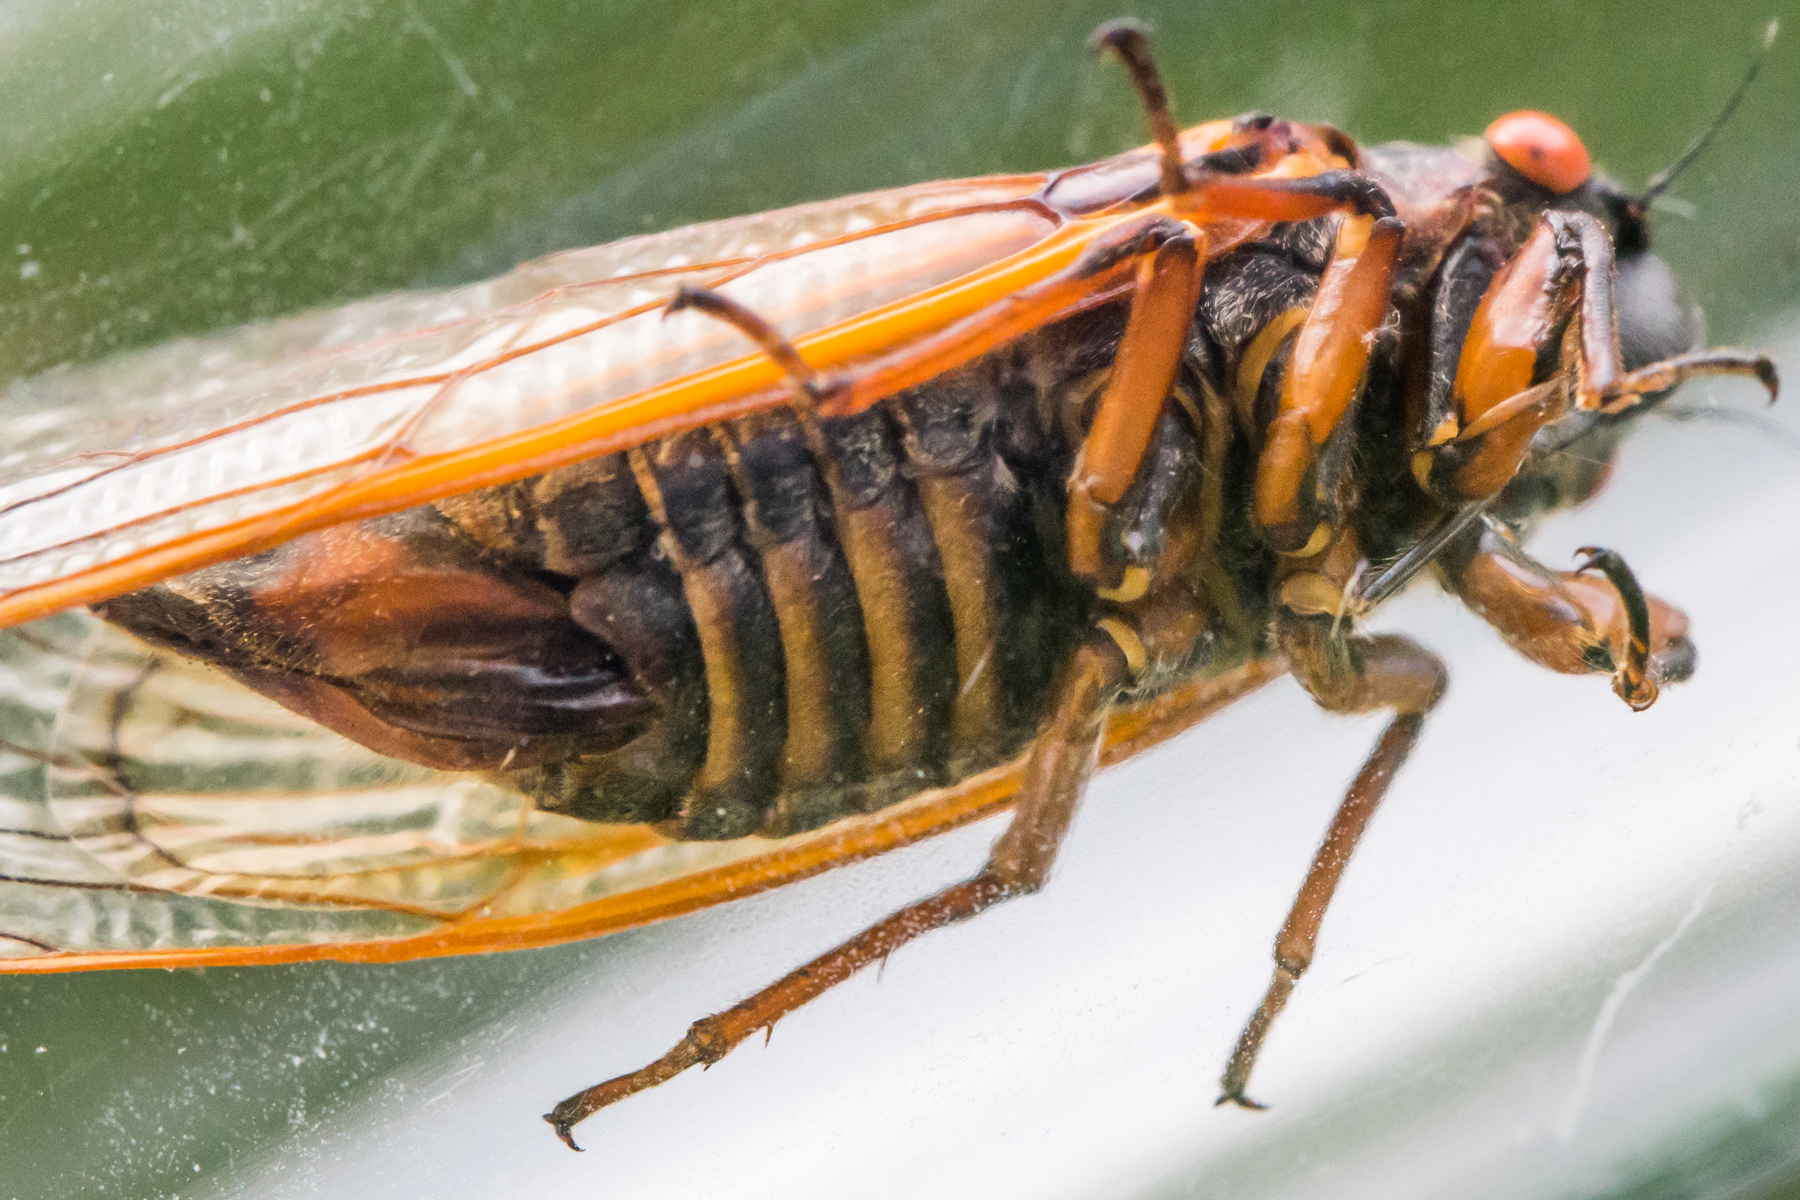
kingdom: Animalia
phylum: Arthropoda
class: Insecta
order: Hemiptera
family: Cicadidae
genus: Magicicada
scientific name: Magicicada septendecim
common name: Periodical cicada
